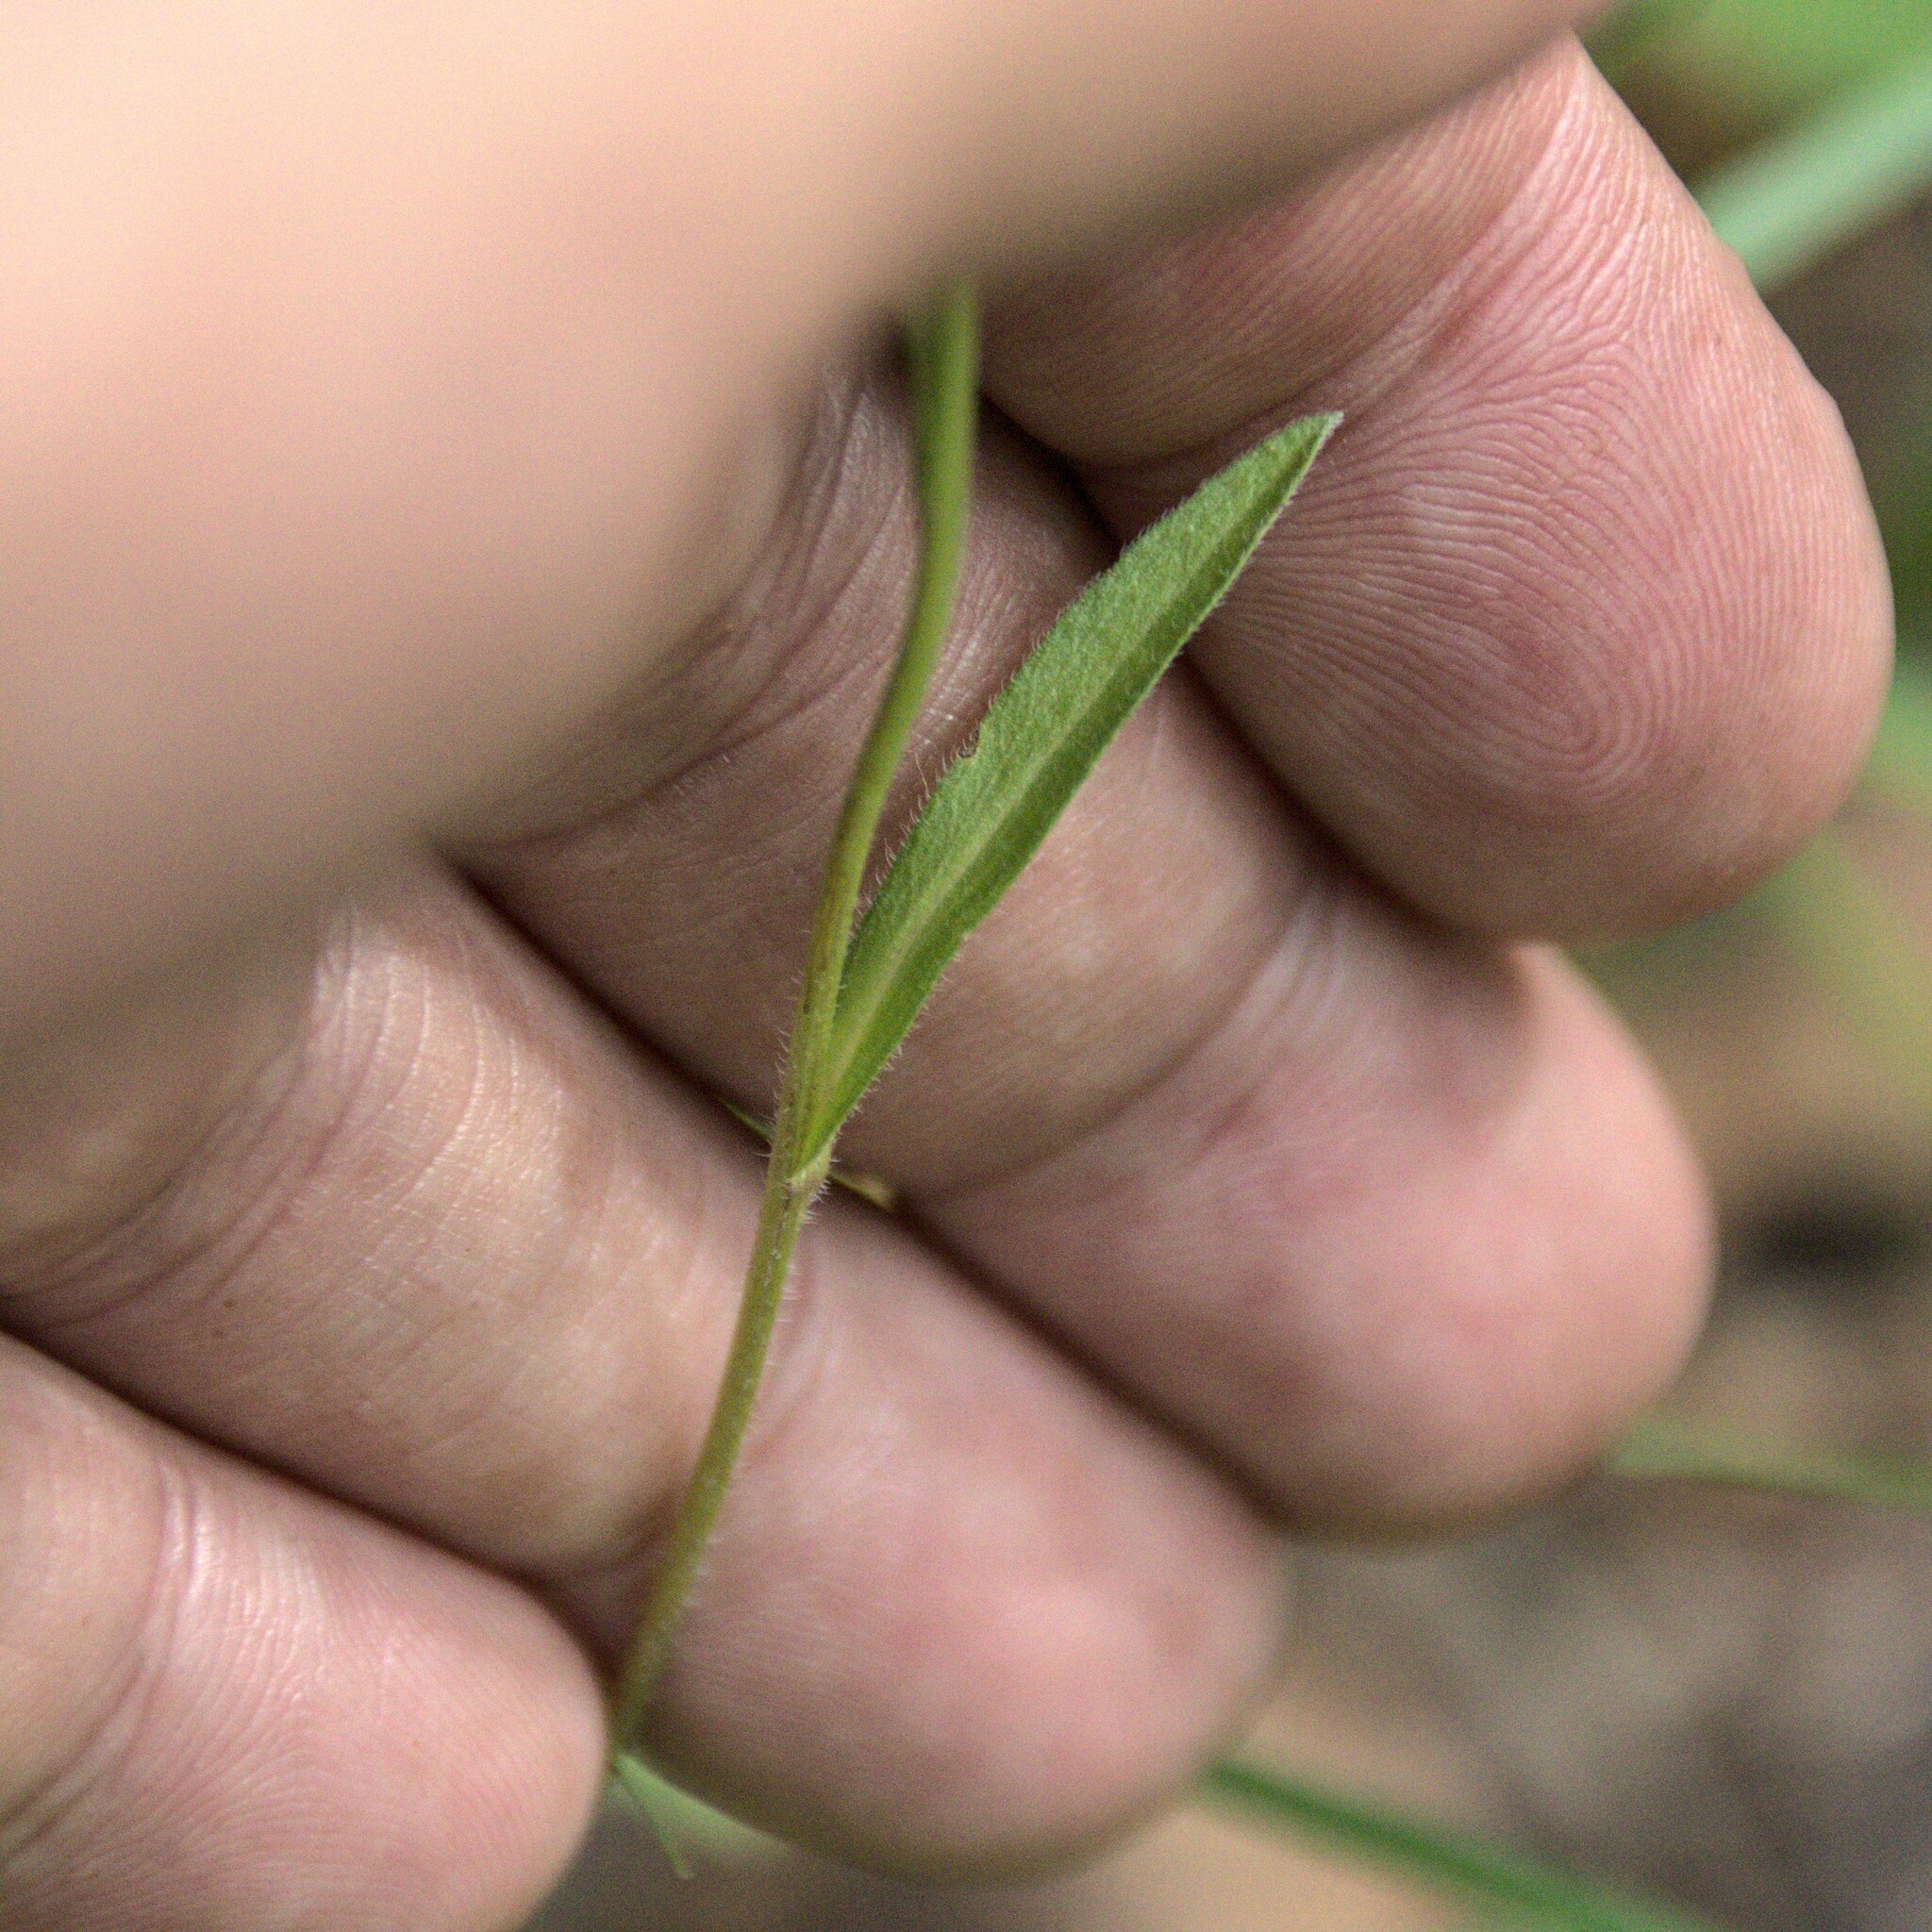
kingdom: Plantae
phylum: Tracheophyta
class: Magnoliopsida
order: Asterales
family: Asteraceae
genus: Erigeron
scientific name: Erigeron acris
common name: Blue fleabane
